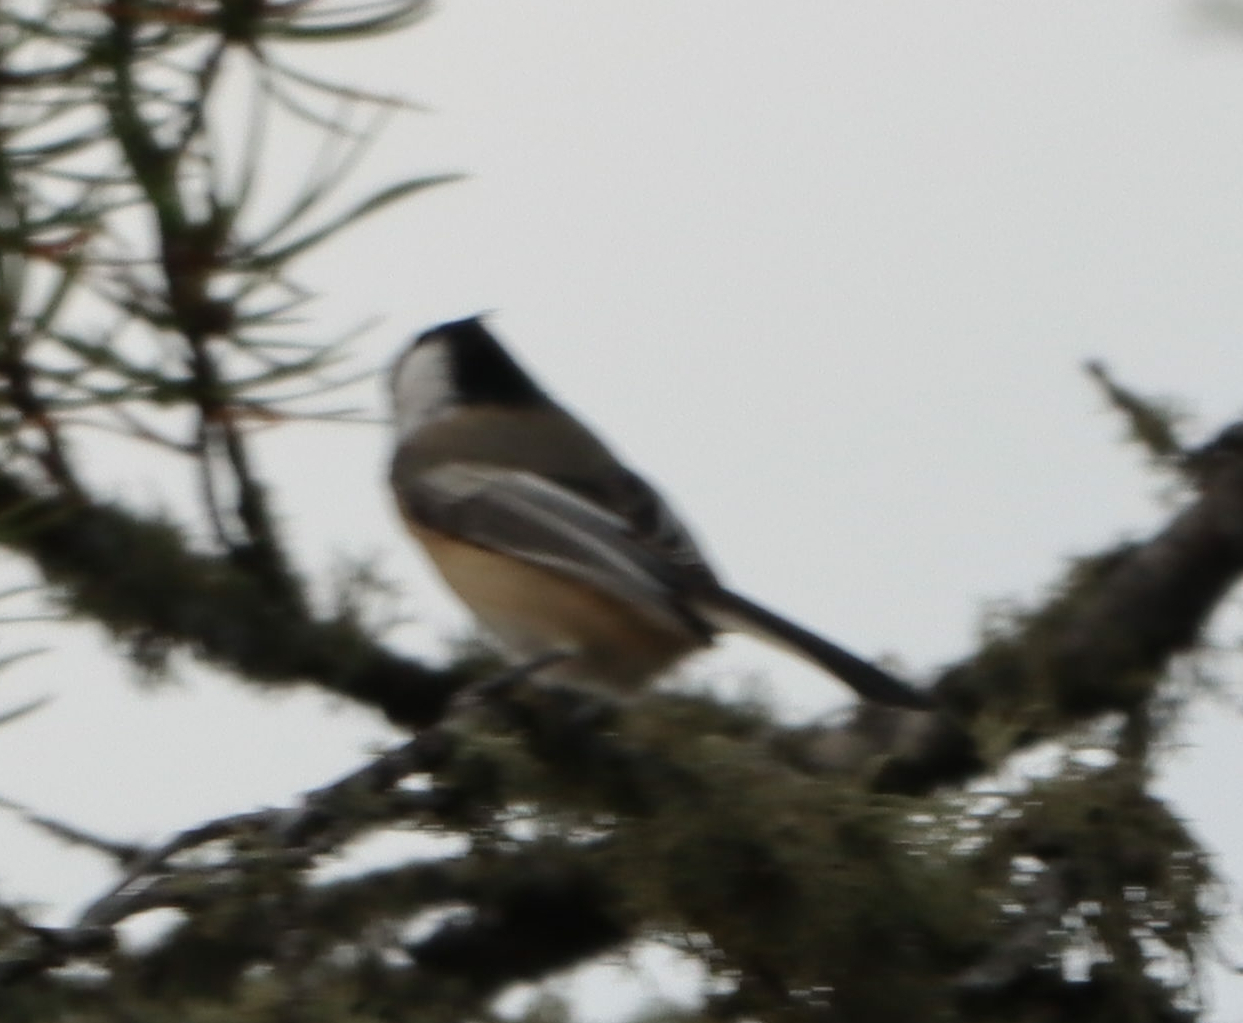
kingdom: Animalia
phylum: Chordata
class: Aves
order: Passeriformes
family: Paridae
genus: Poecile
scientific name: Poecile atricapillus
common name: Black-capped chickadee
